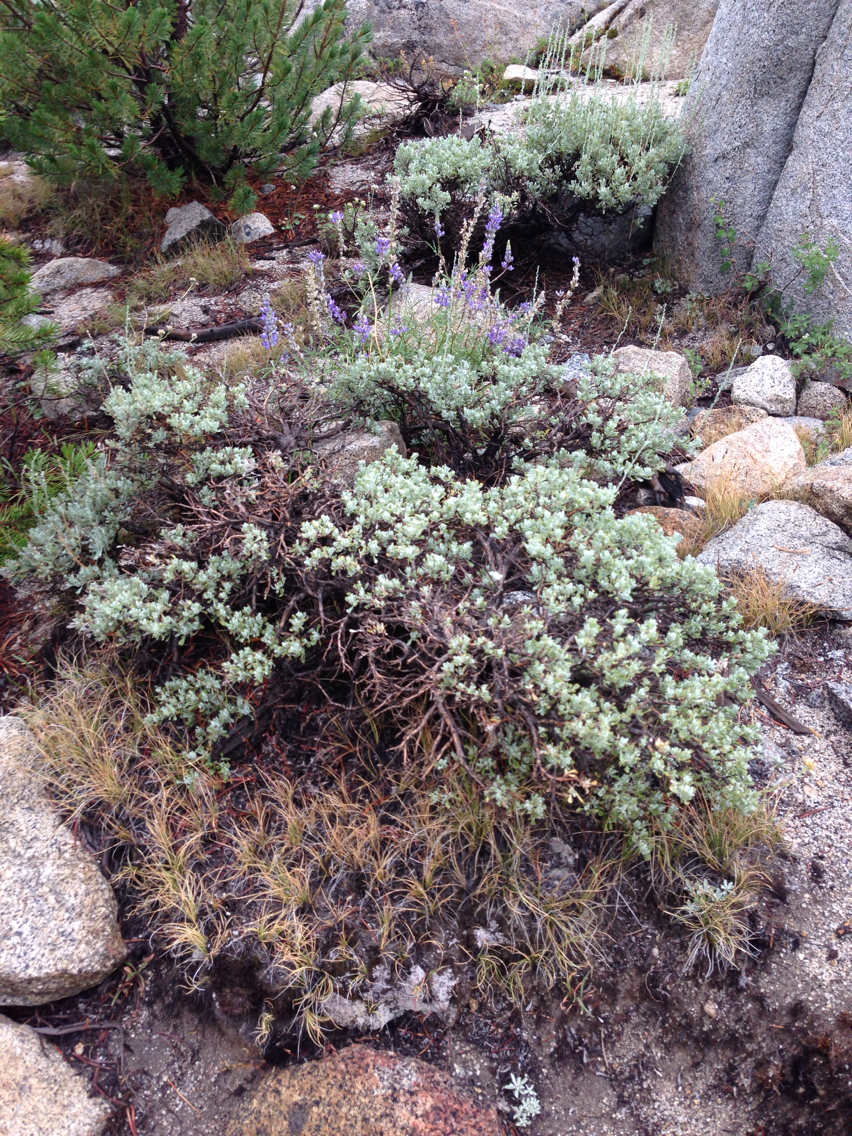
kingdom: Plantae
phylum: Tracheophyta
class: Magnoliopsida
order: Asterales
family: Asteraceae
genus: Artemisia
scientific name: Artemisia tridentata
